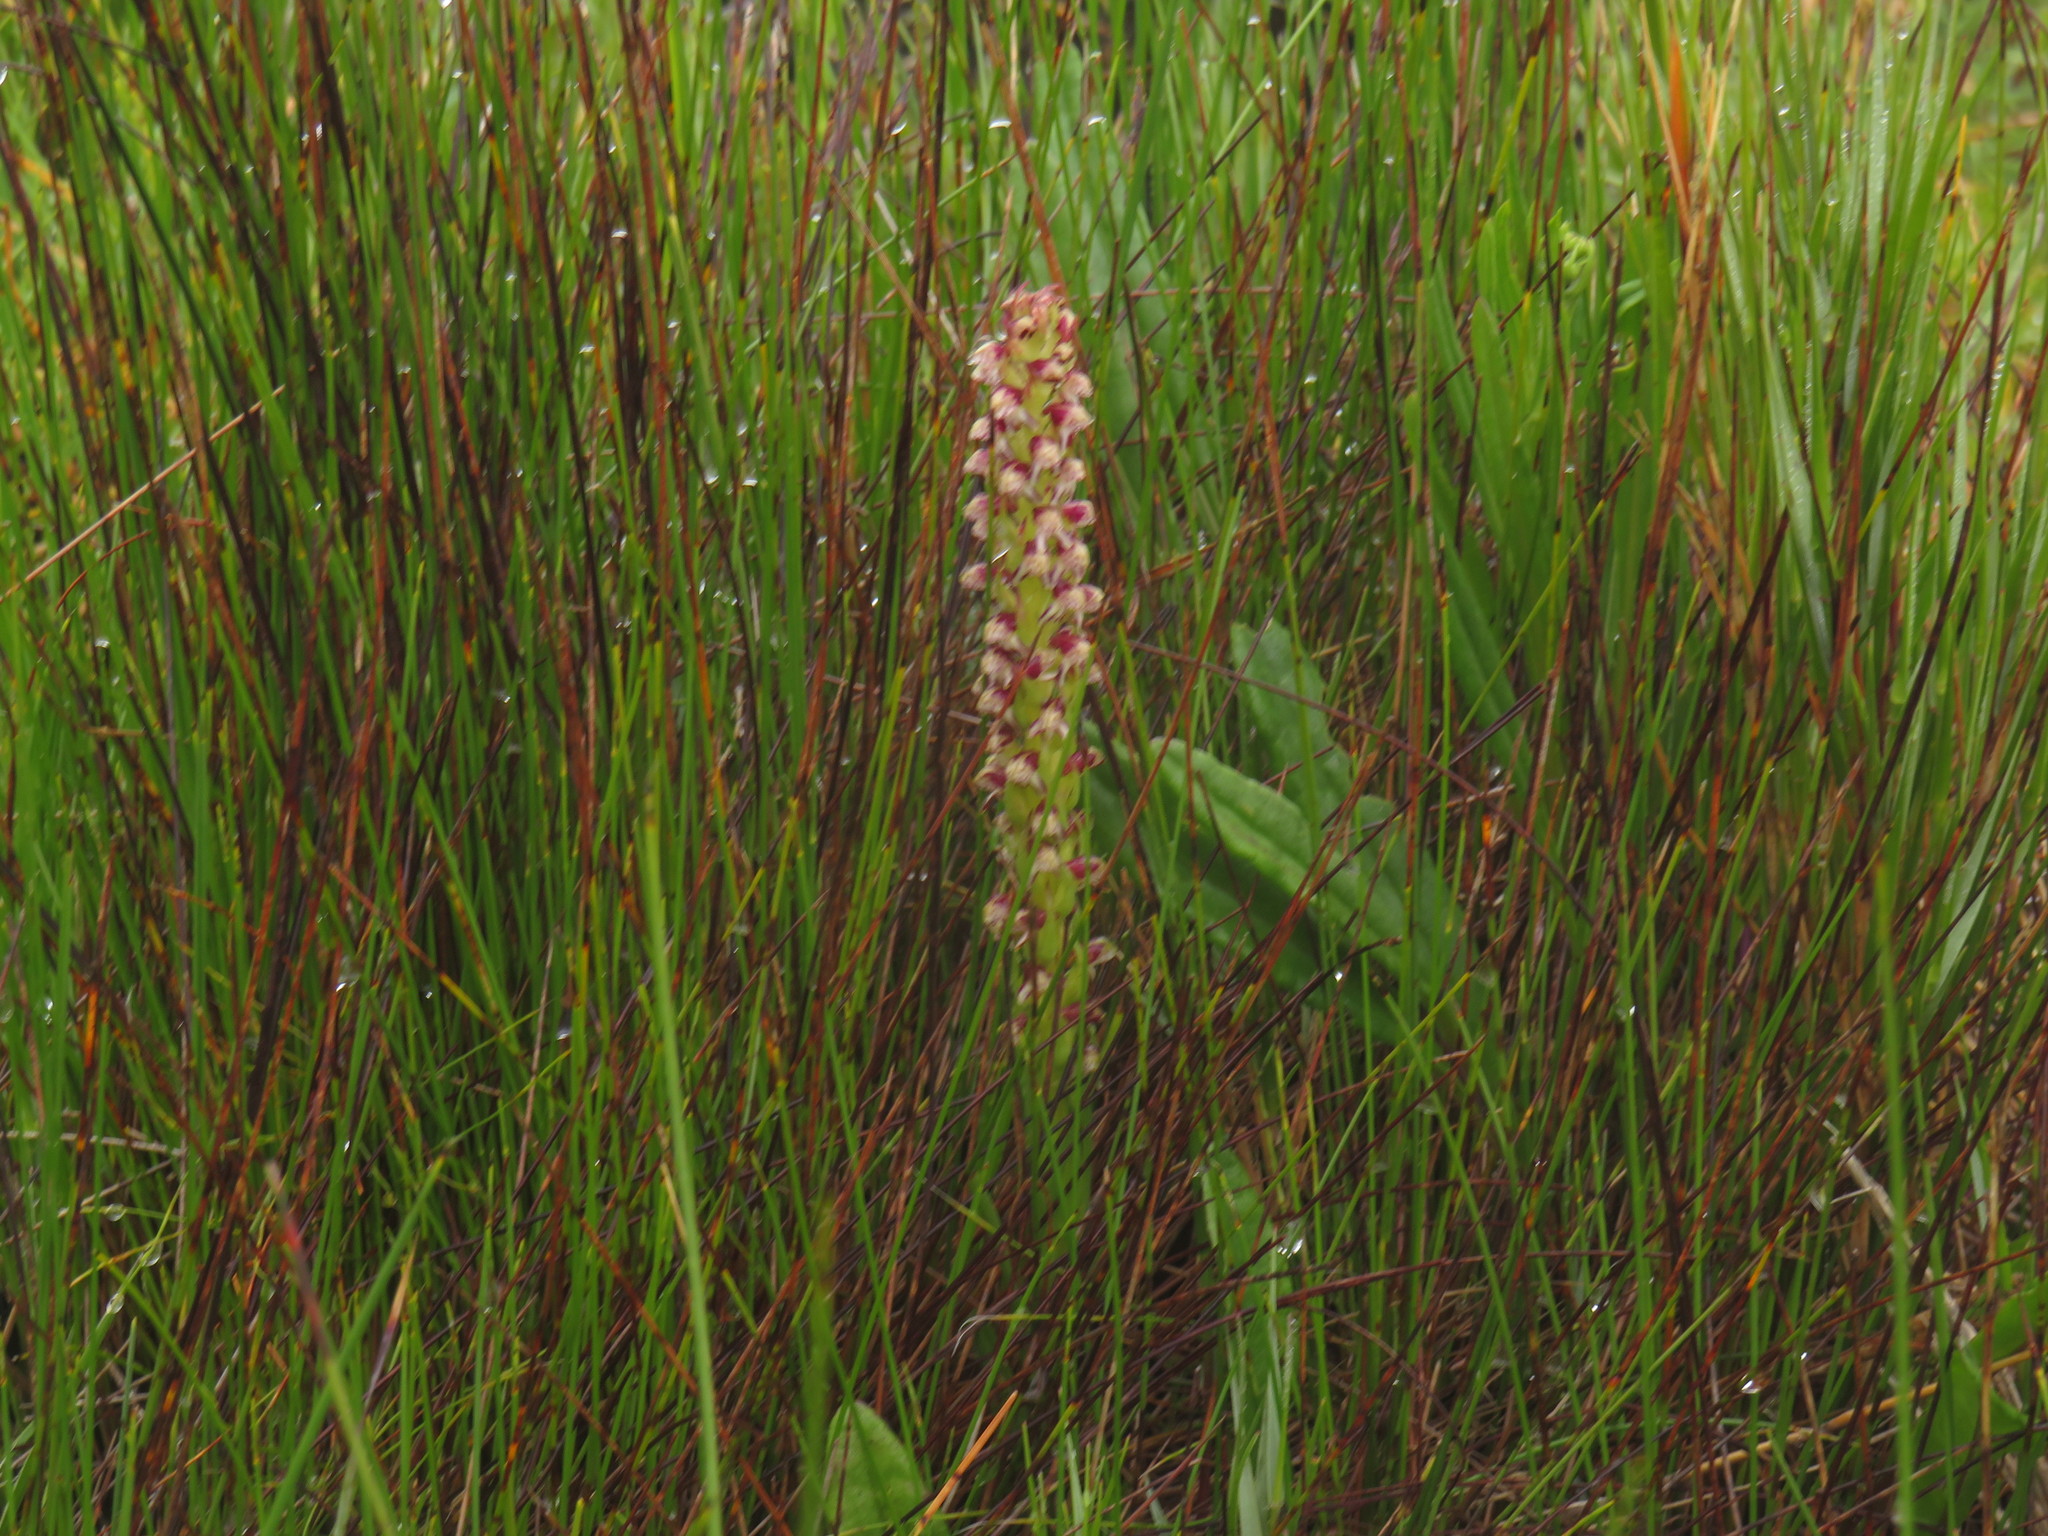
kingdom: Plantae
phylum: Tracheophyta
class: Liliopsida
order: Asparagales
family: Orchidaceae
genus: Disa
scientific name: Disa obtusa
